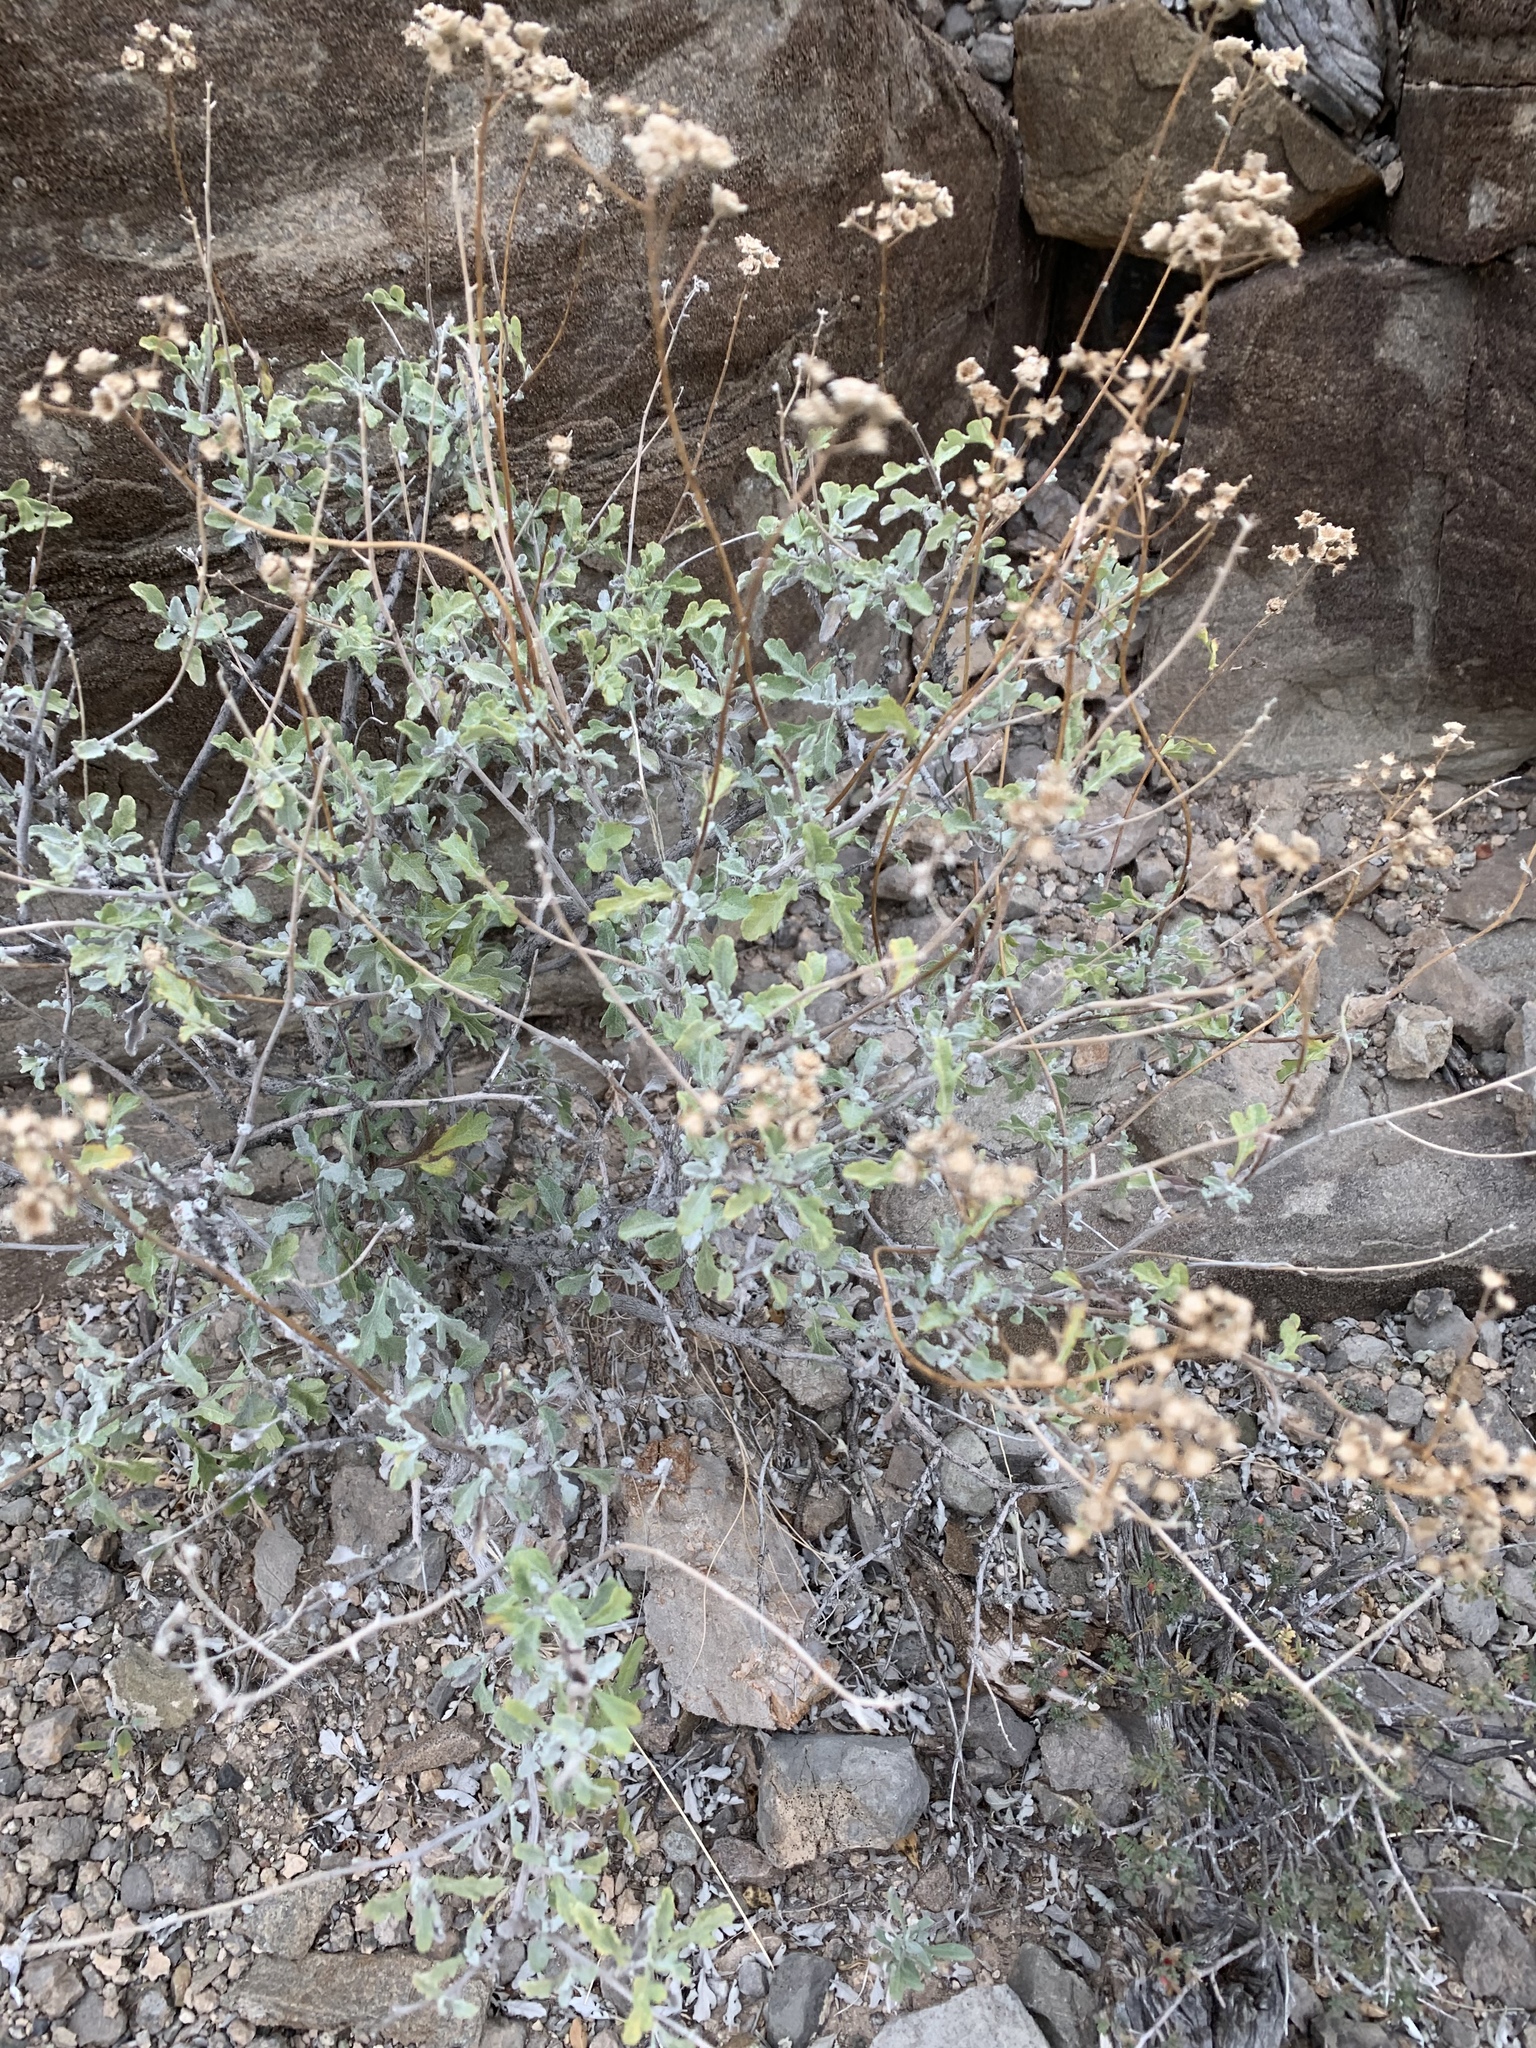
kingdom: Plantae
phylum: Tracheophyta
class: Magnoliopsida
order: Asterales
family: Asteraceae
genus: Parthenium
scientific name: Parthenium incanum
